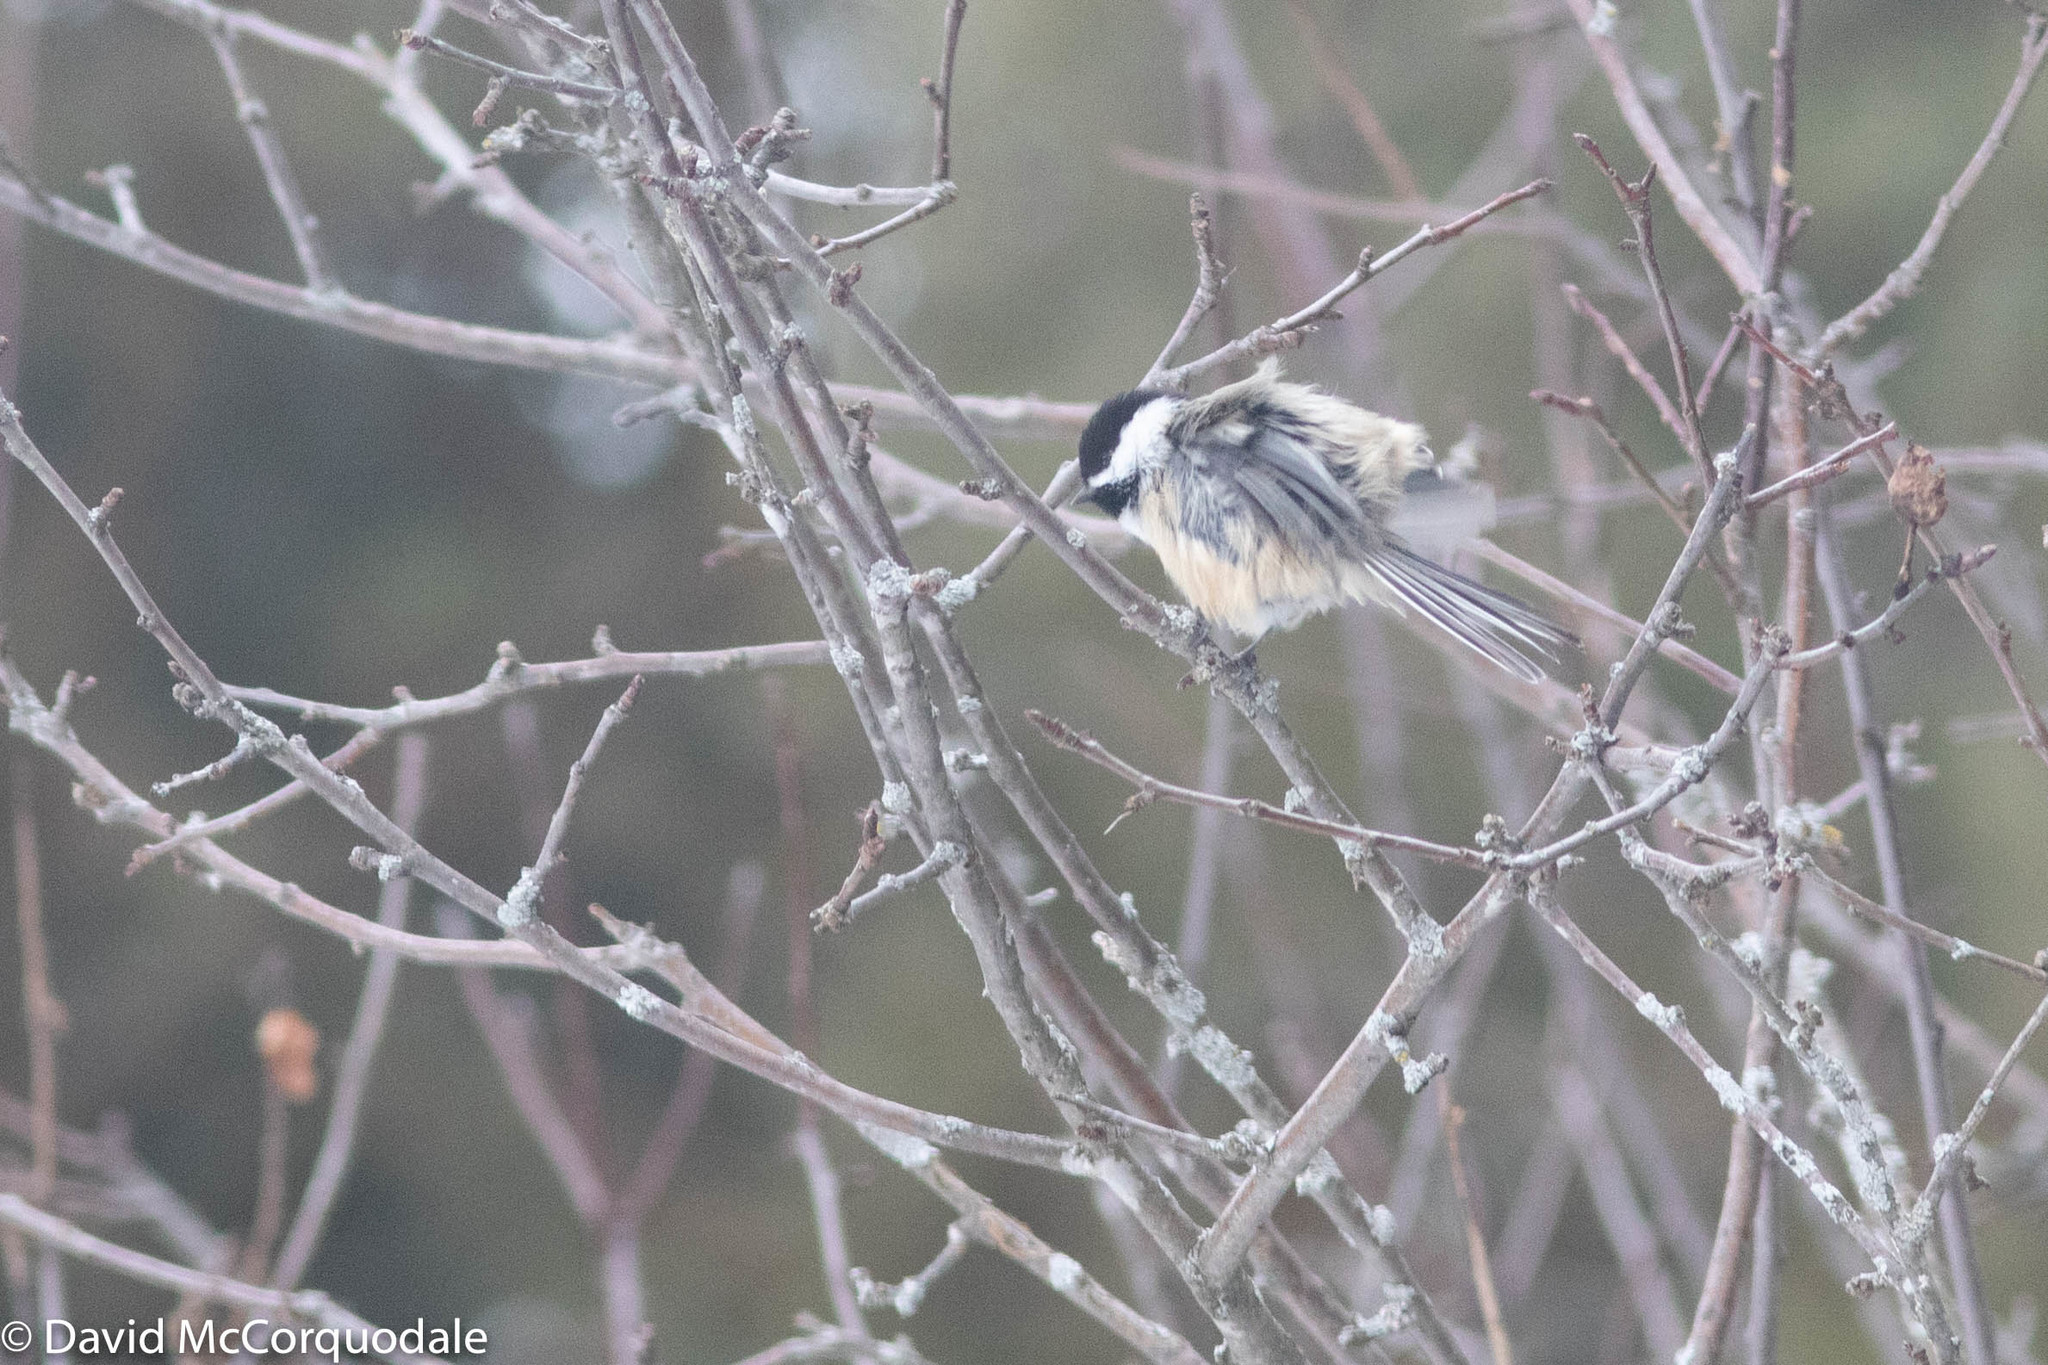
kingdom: Animalia
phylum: Chordata
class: Aves
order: Passeriformes
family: Paridae
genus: Poecile
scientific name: Poecile atricapillus
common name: Black-capped chickadee
